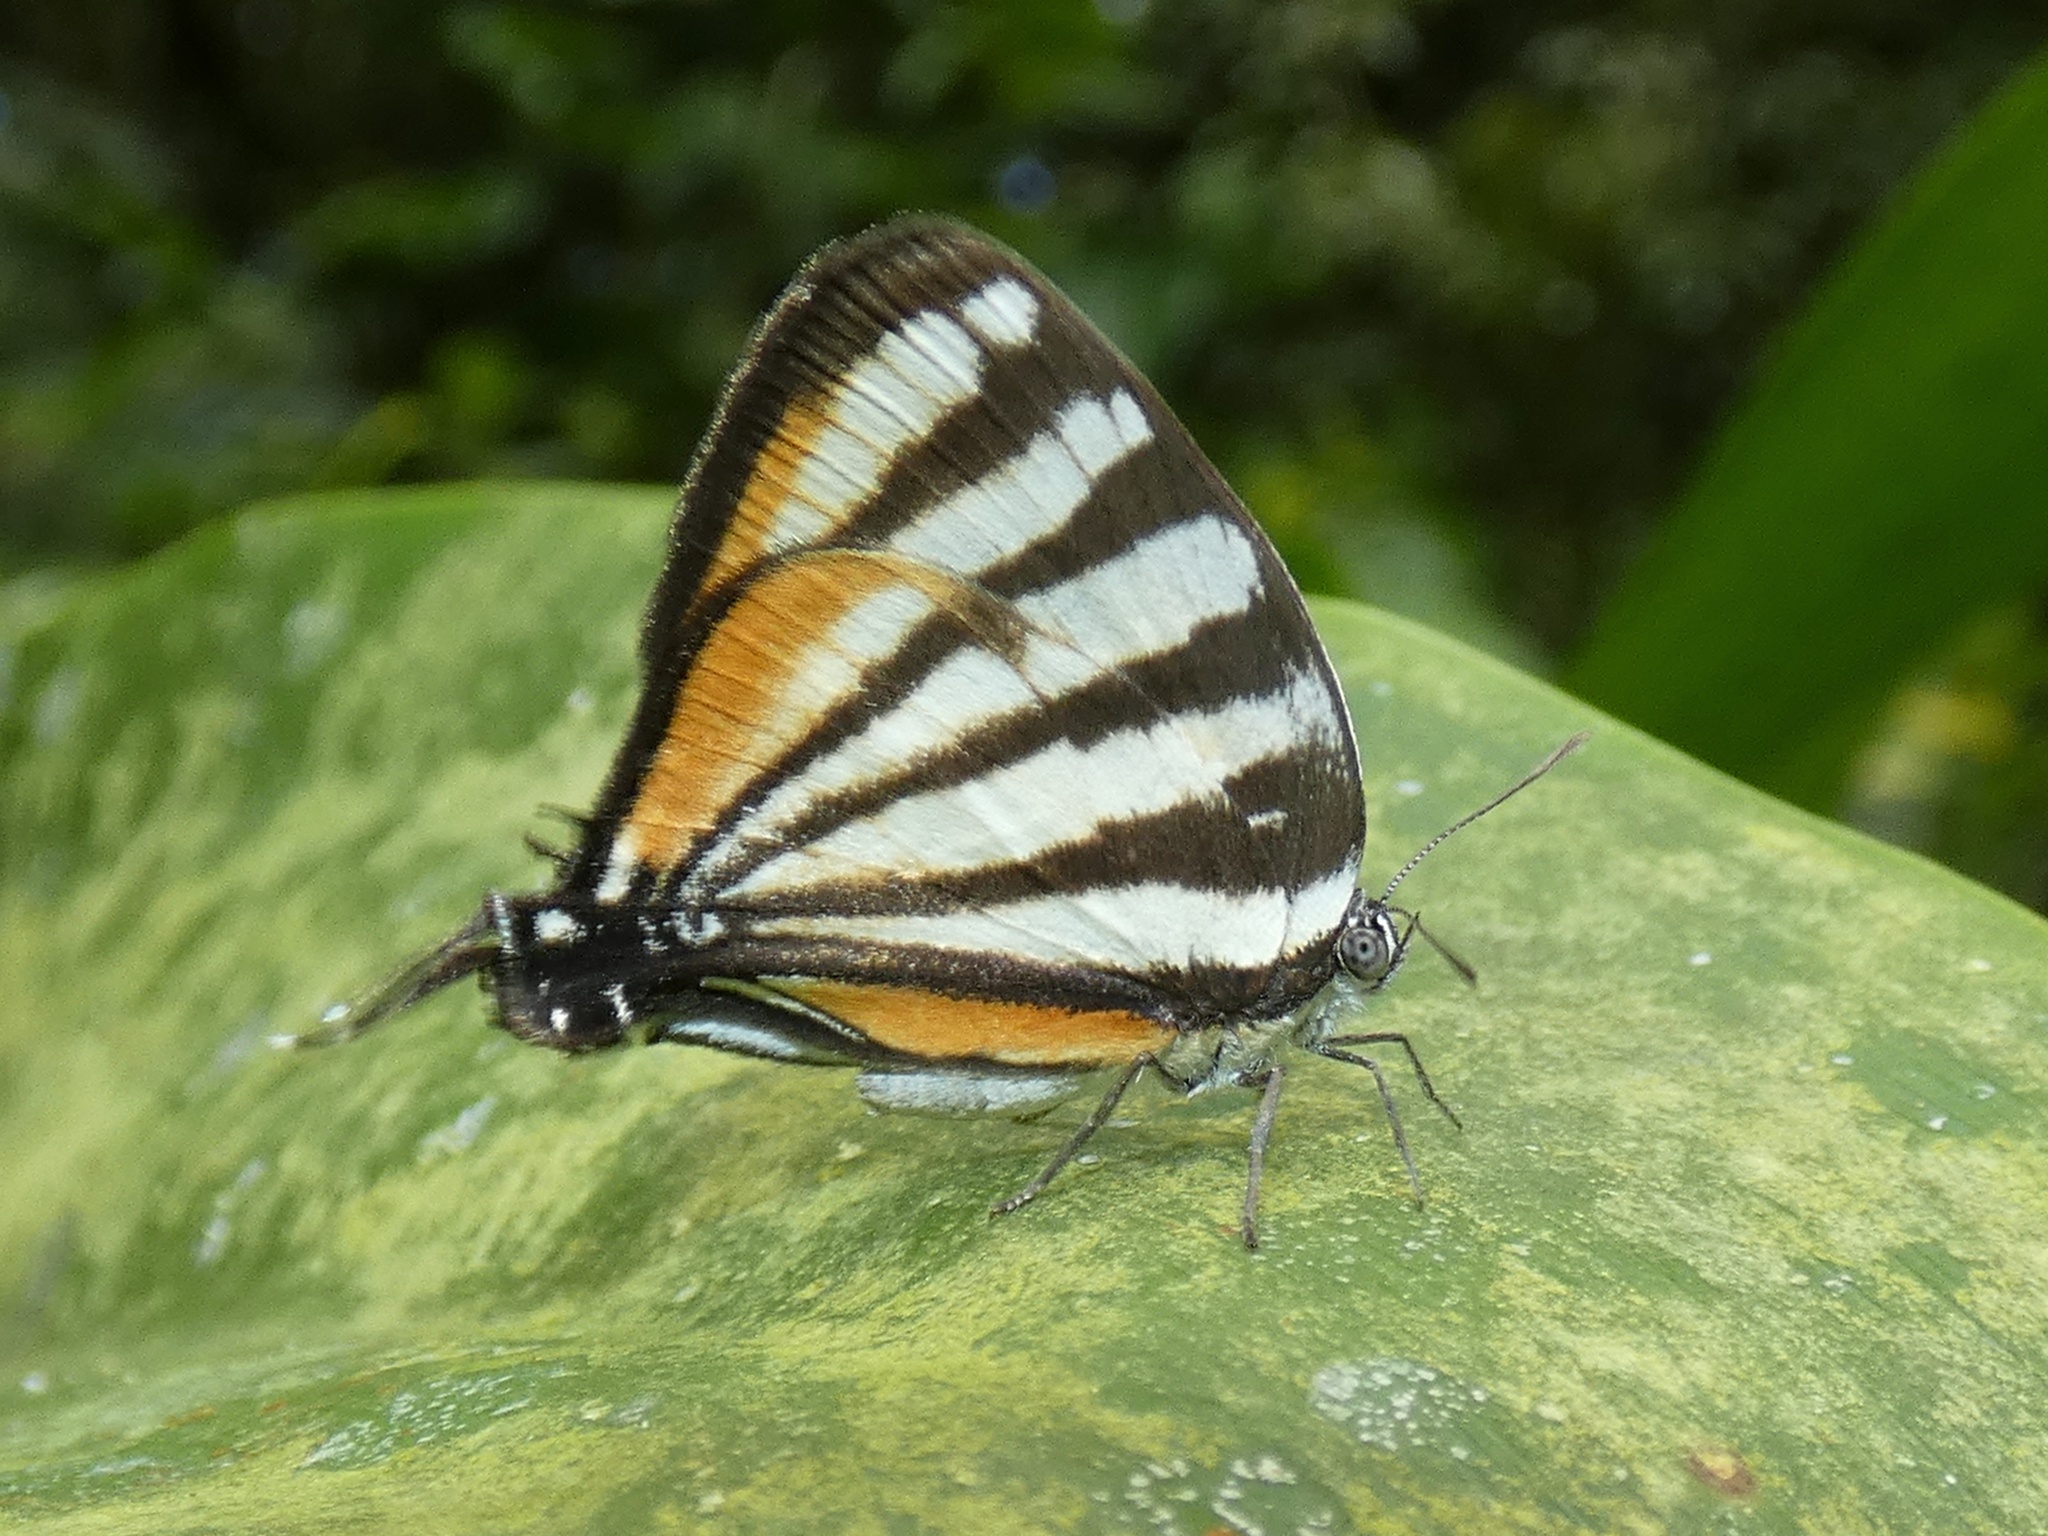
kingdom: Animalia
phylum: Arthropoda
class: Insecta
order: Lepidoptera
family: Lycaenidae
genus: Arawacus
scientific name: Arawacus lincoides
